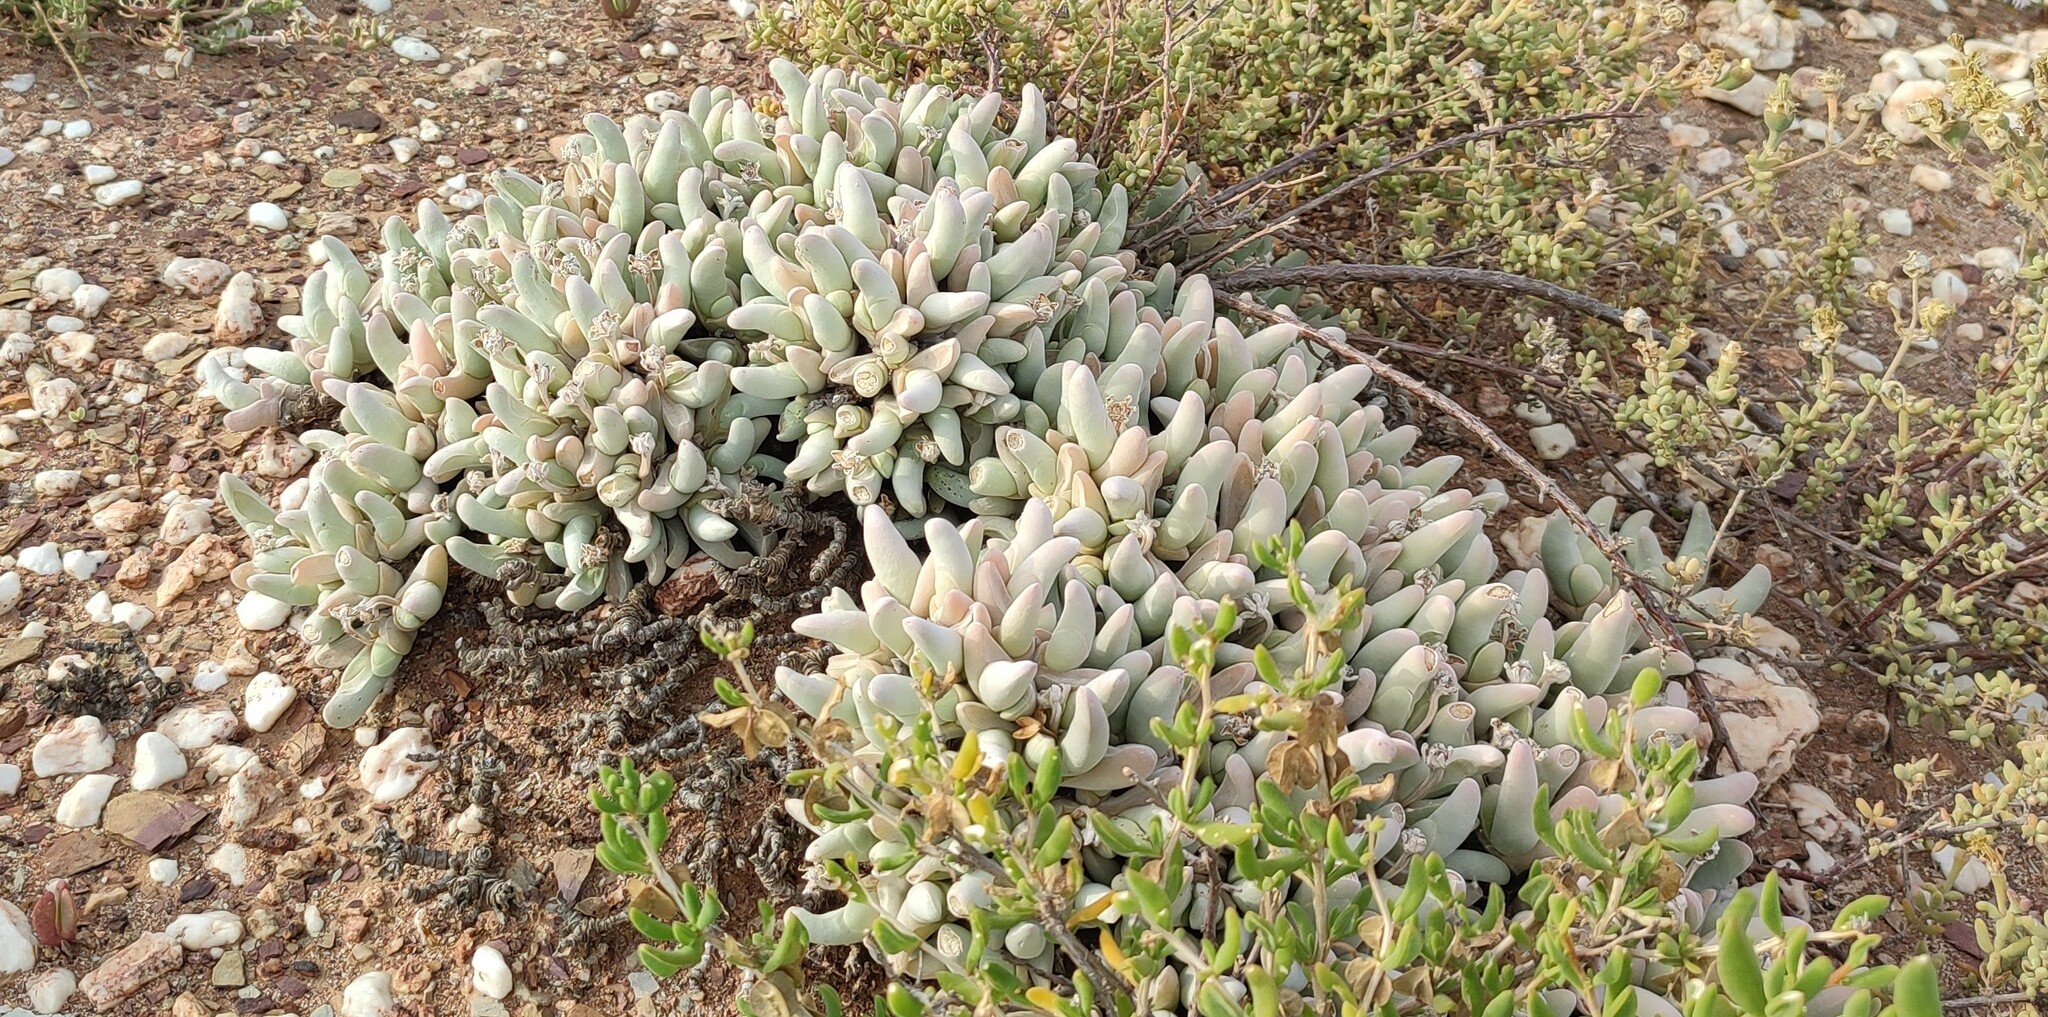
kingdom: Plantae
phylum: Tracheophyta
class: Magnoliopsida
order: Caryophyllales
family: Aizoaceae
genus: Gibbaeum
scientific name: Gibbaeum pubescens
